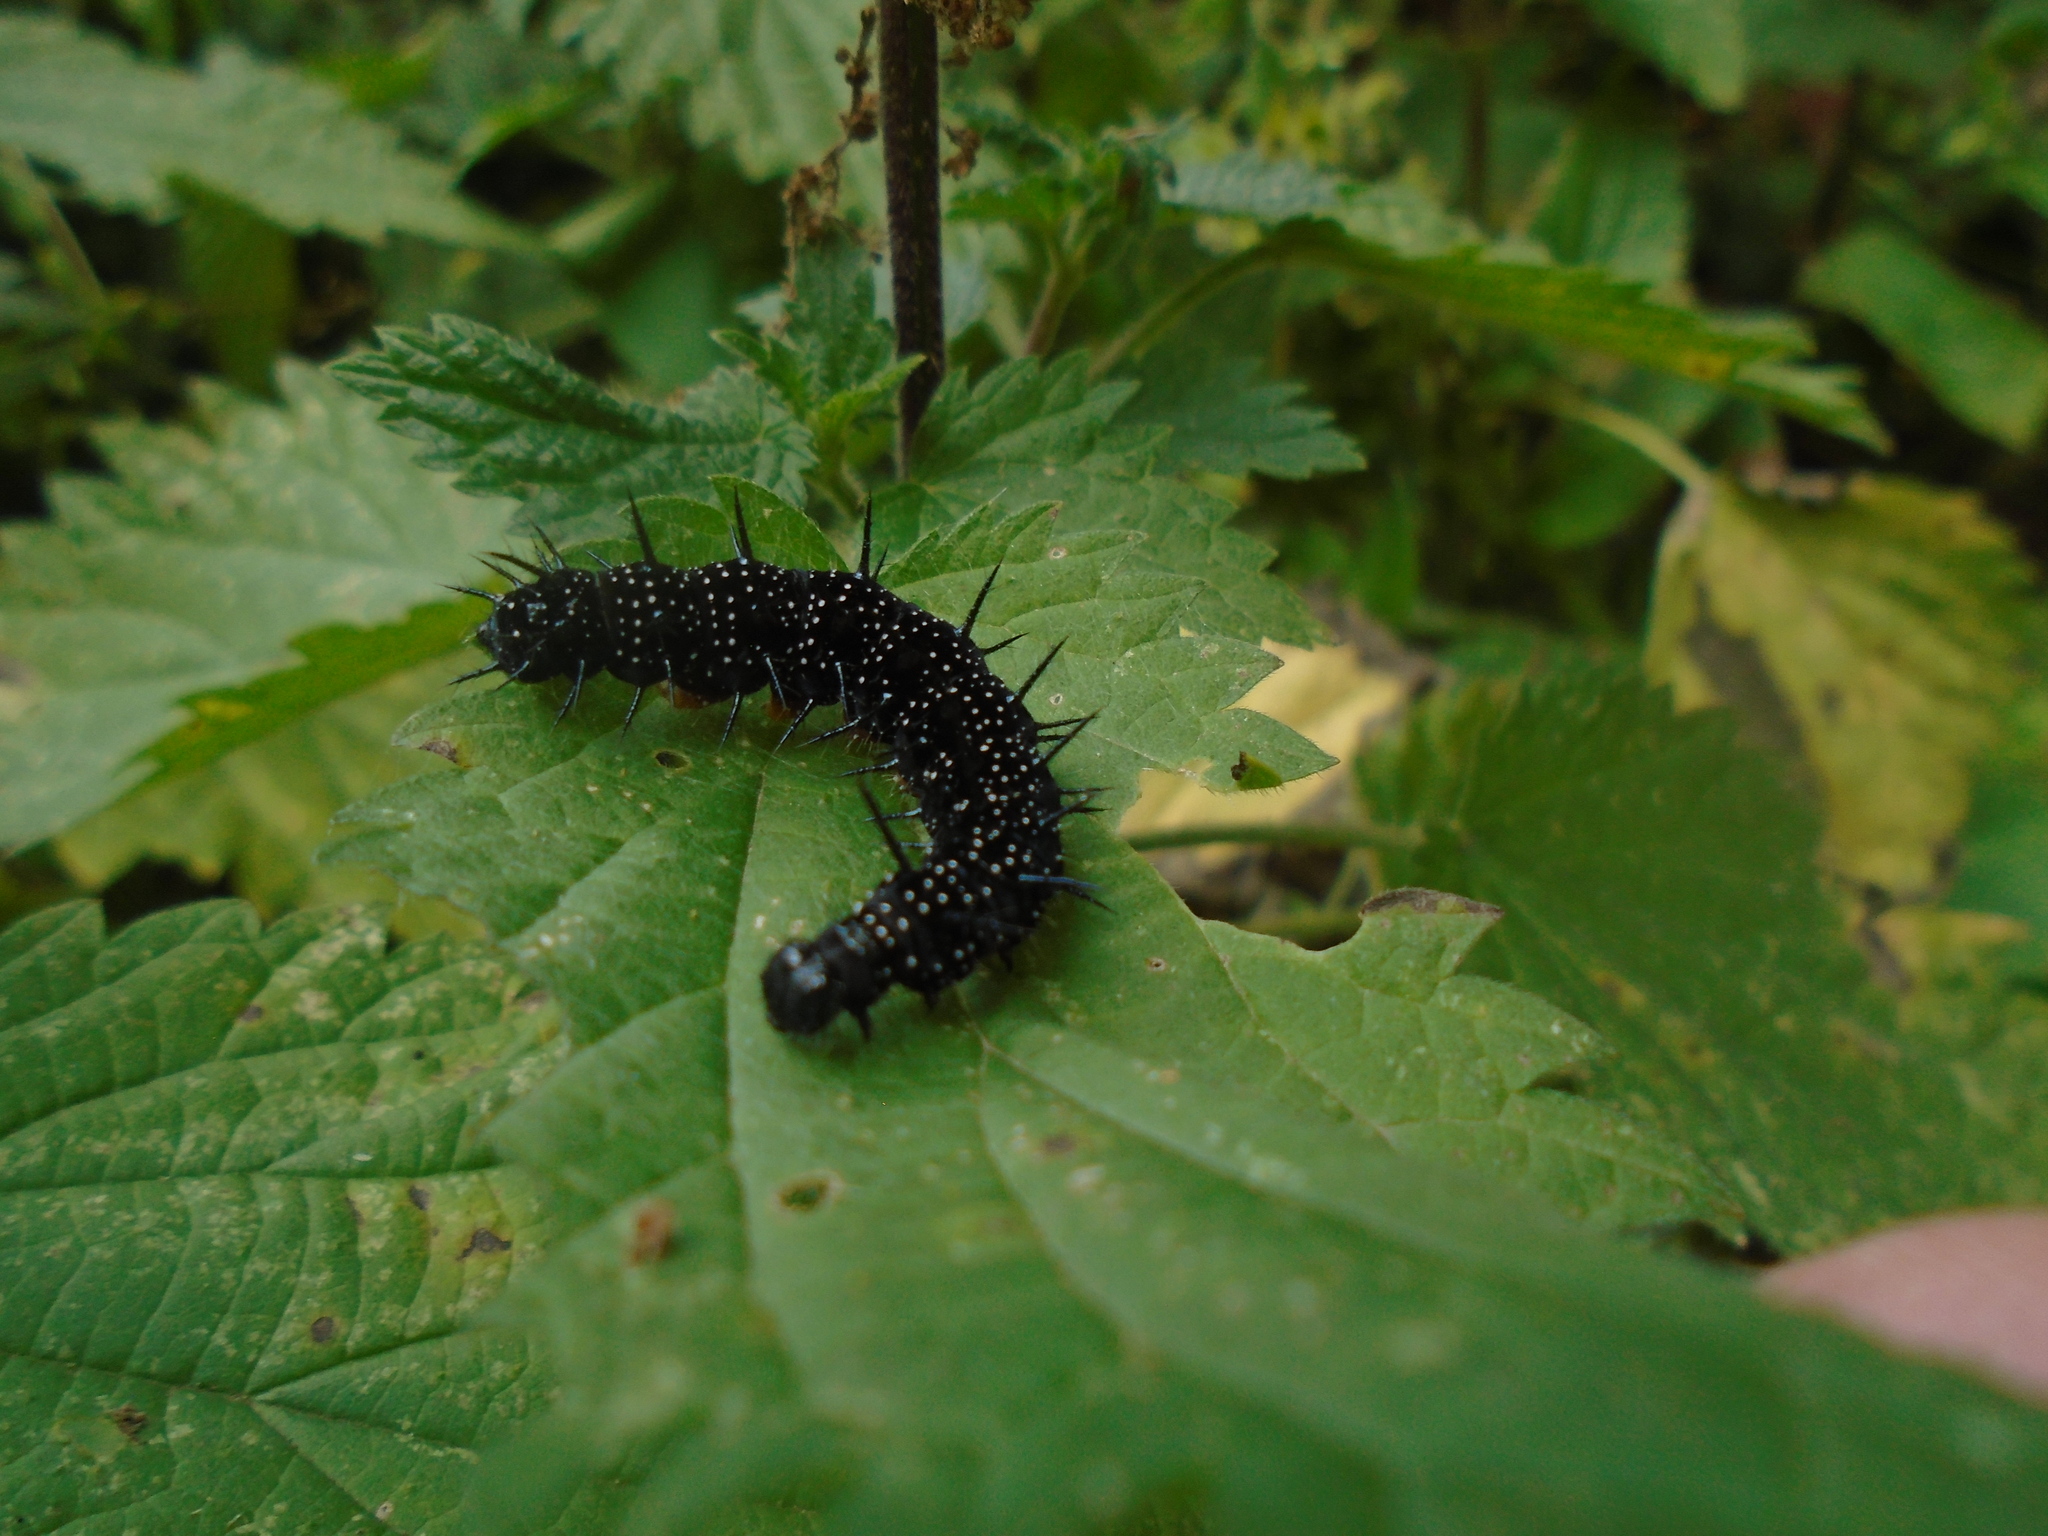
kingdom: Animalia
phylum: Arthropoda
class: Insecta
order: Lepidoptera
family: Nymphalidae
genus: Aglais
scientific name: Aglais io
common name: Peacock
